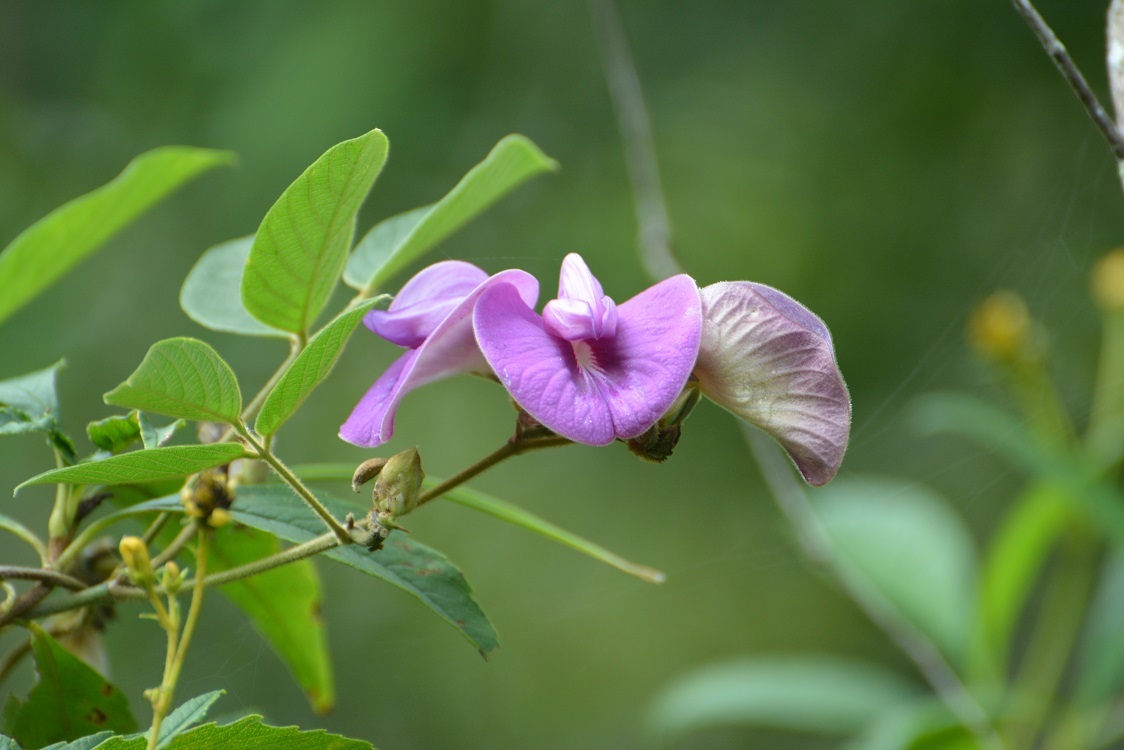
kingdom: Plantae
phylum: Tracheophyta
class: Magnoliopsida
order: Fabales
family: Fabaceae
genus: Centrosema
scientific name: Centrosema virginianum
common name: Butterfly-pea
